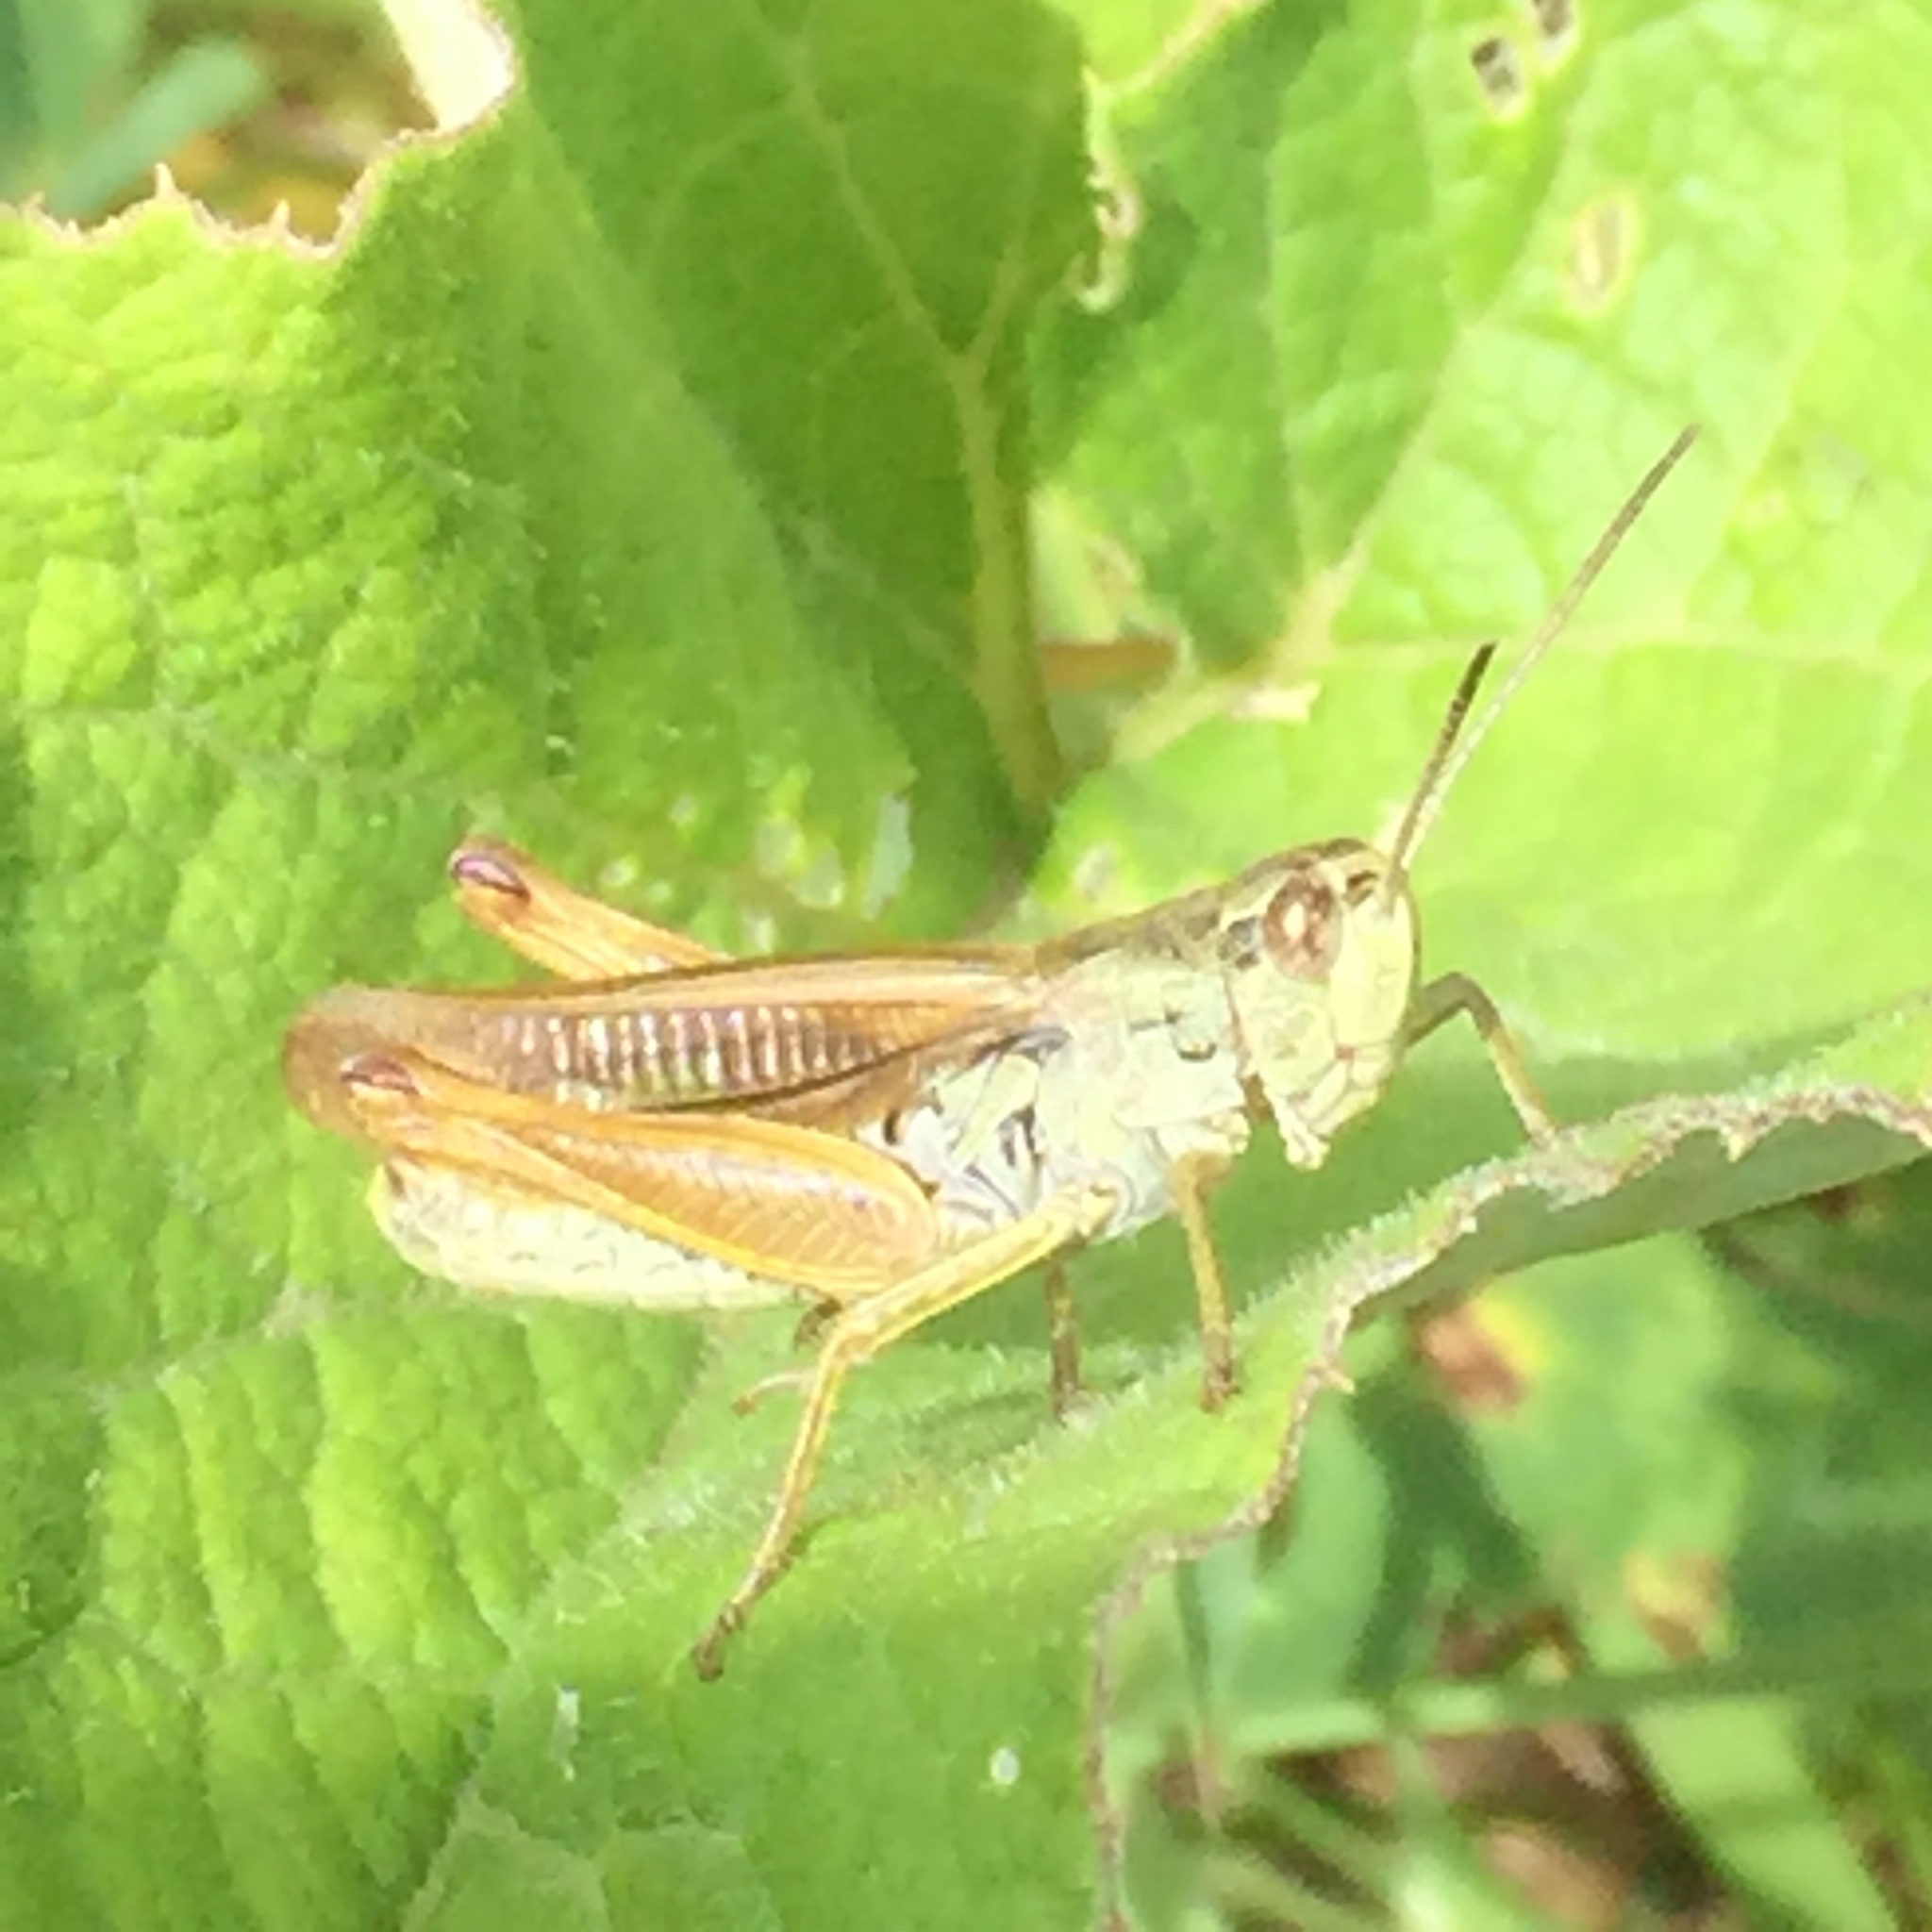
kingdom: Animalia
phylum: Arthropoda
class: Insecta
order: Orthoptera
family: Acrididae
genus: Stauroderus
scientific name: Stauroderus scalaris
